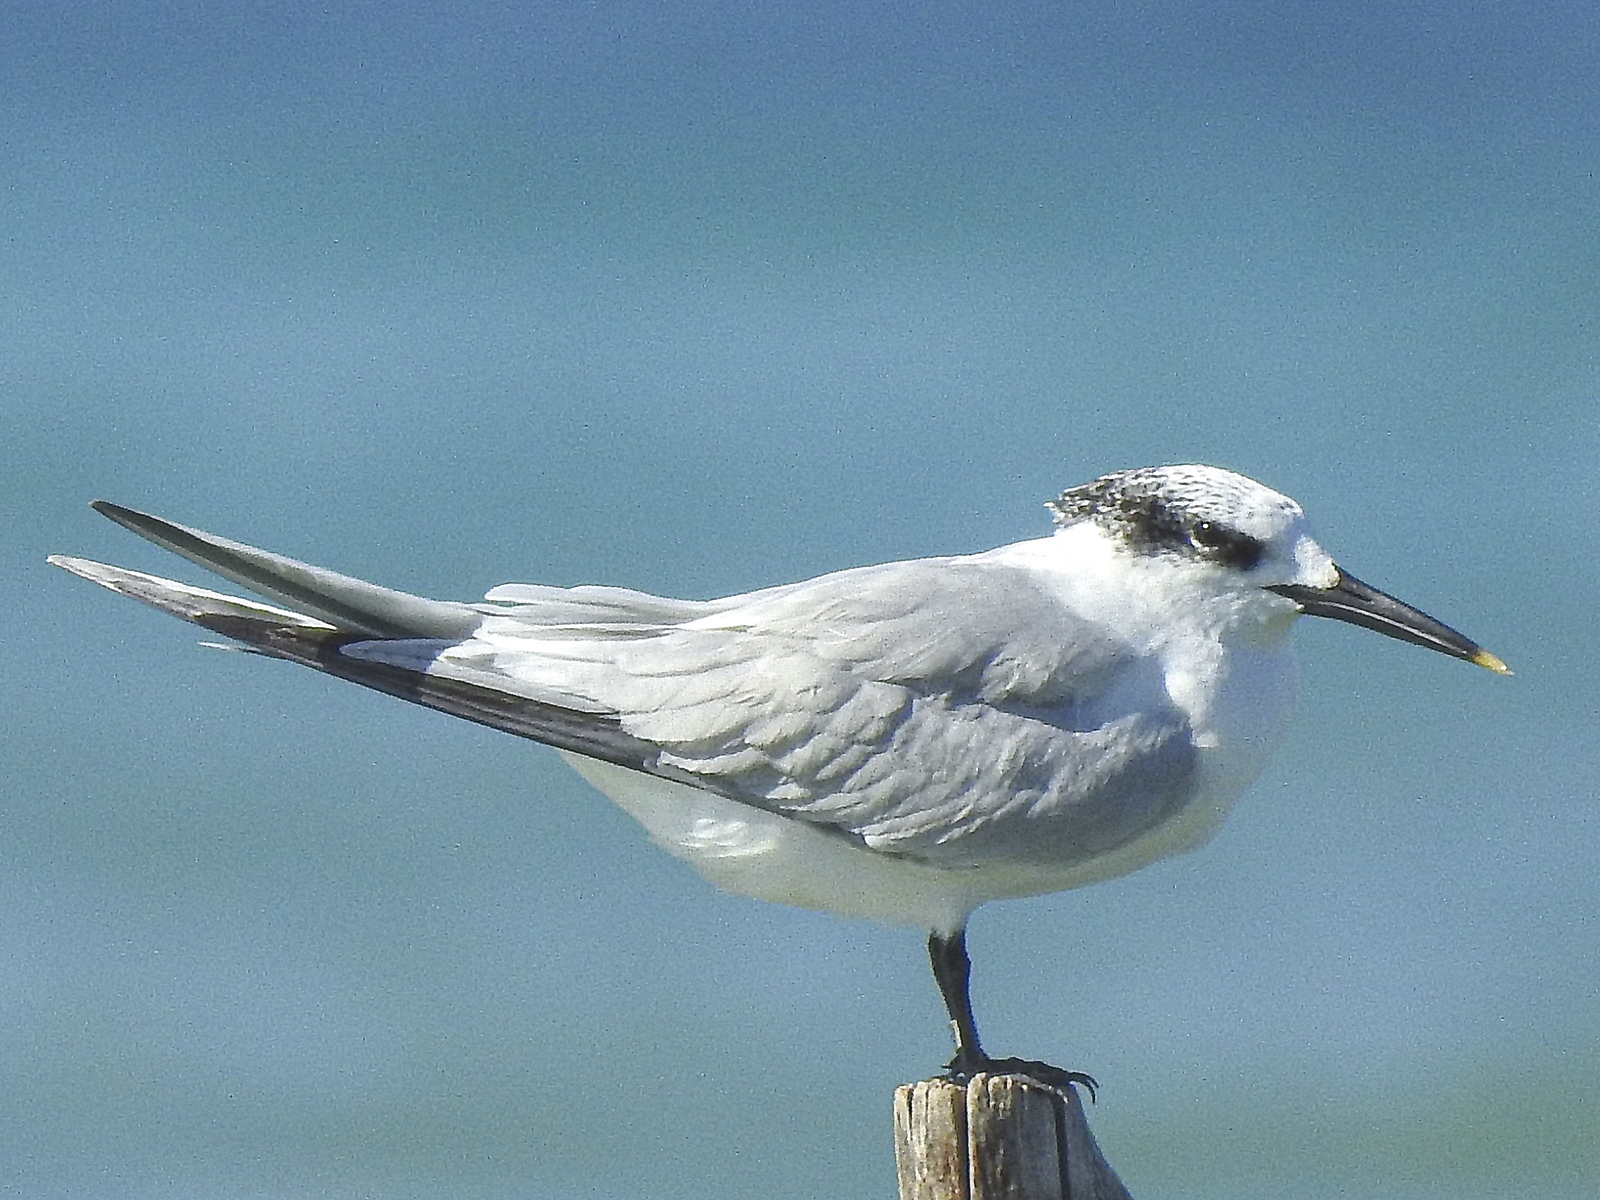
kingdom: Animalia
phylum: Chordata
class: Aves
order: Charadriiformes
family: Laridae
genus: Thalasseus
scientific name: Thalasseus sandvicensis
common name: Sandwich tern
